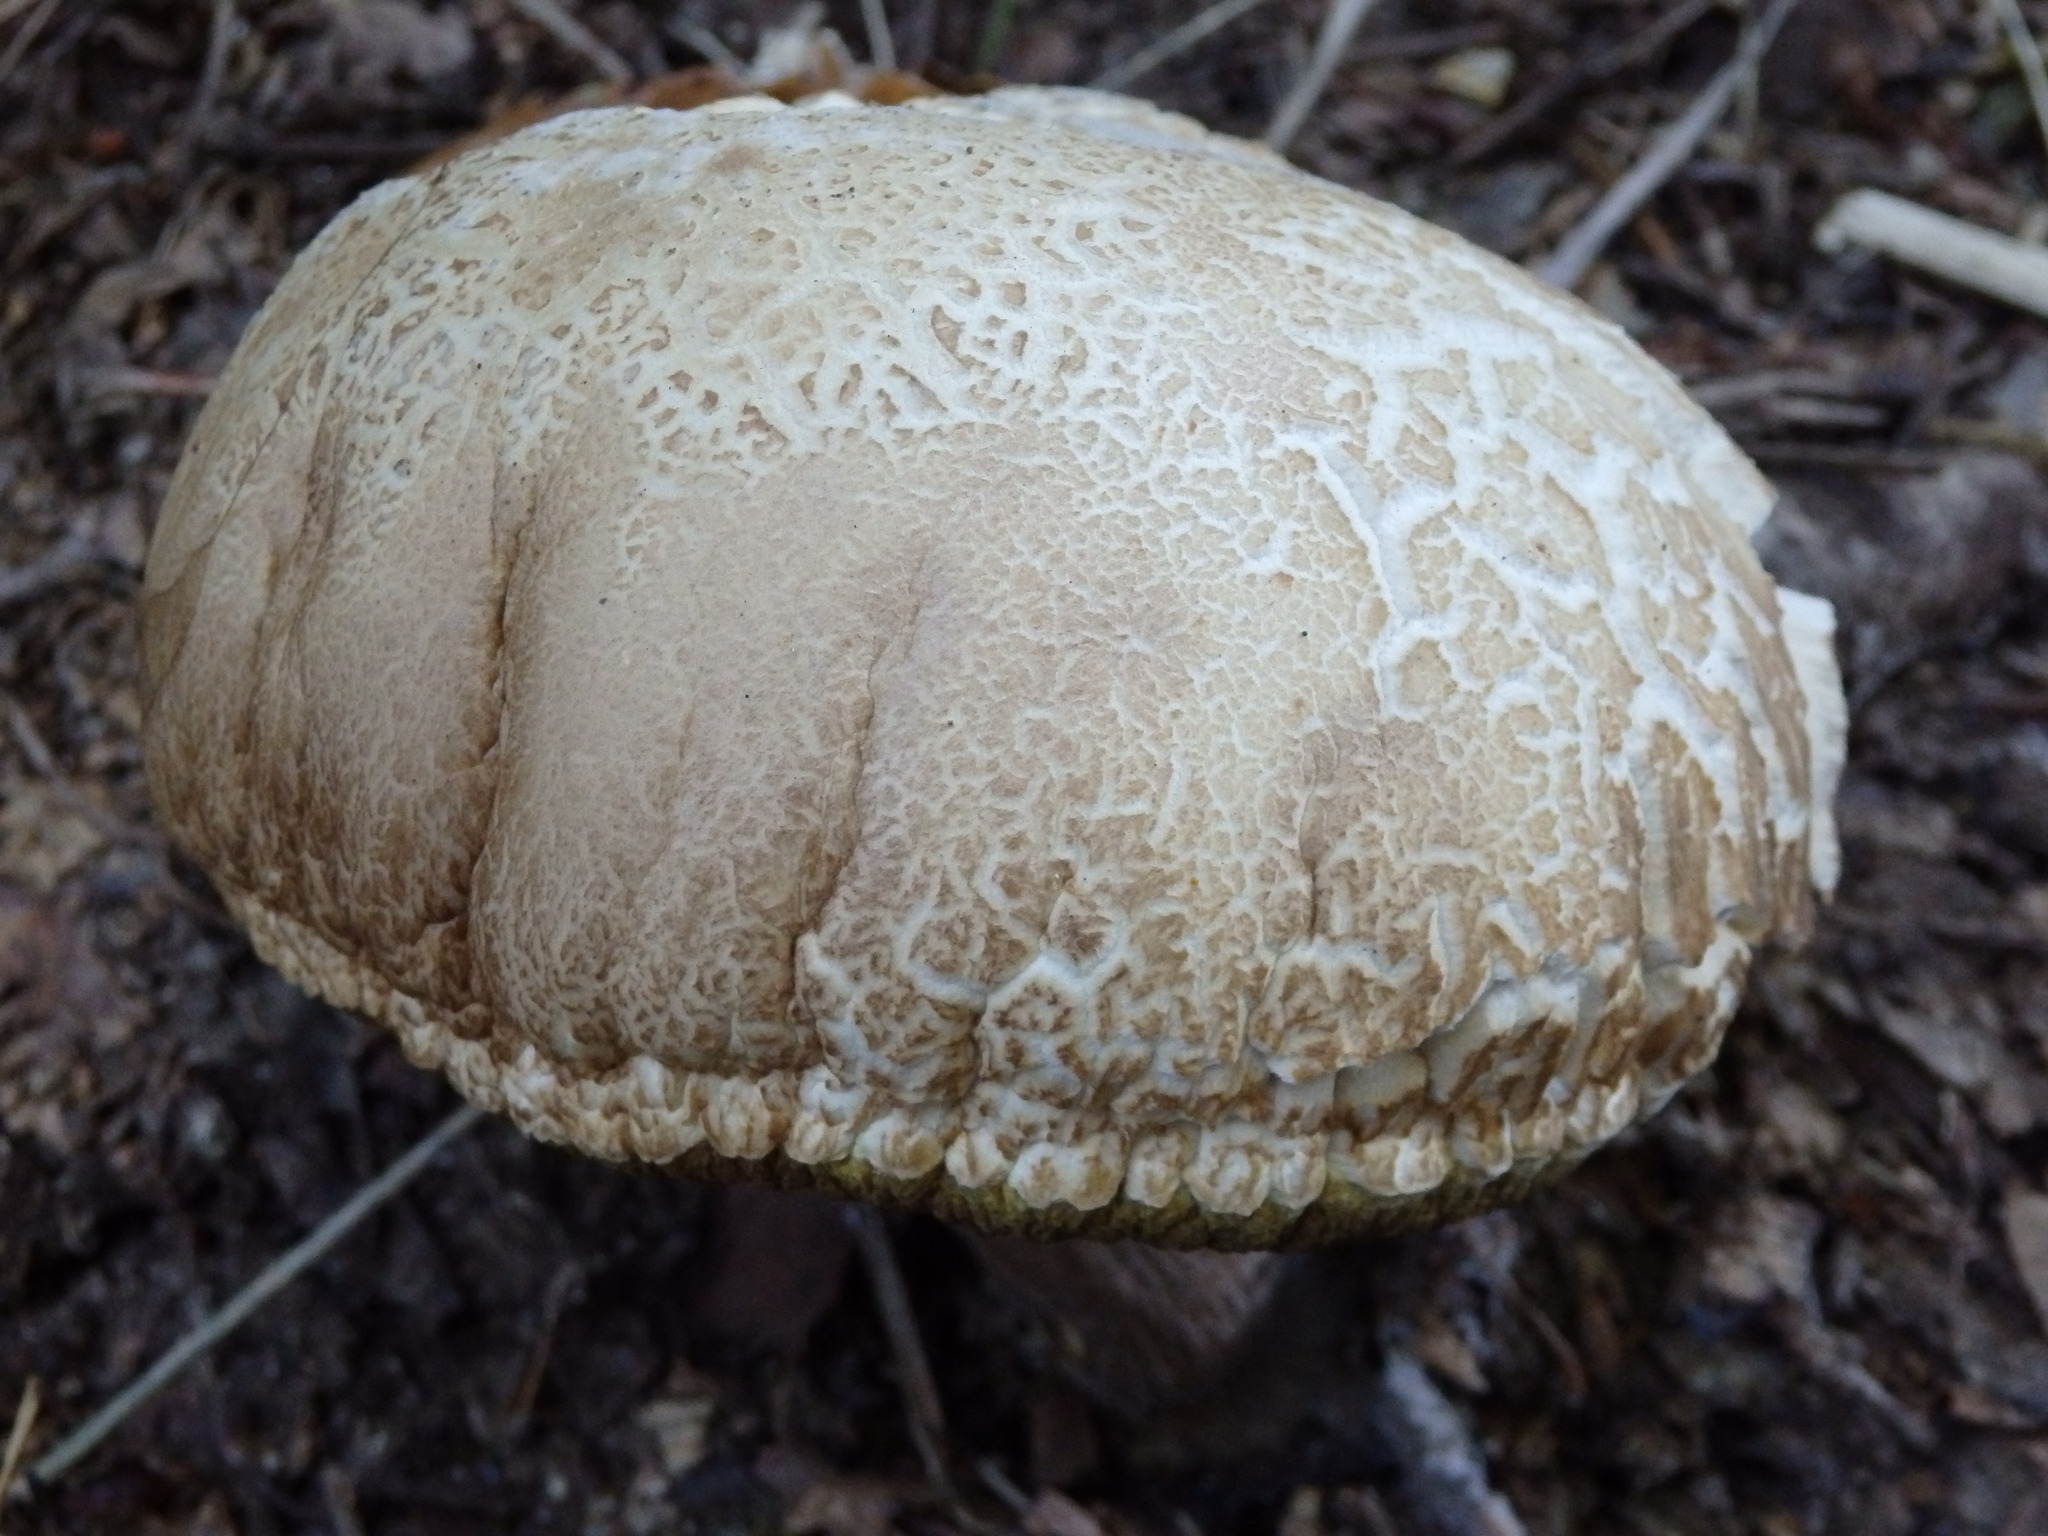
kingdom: Fungi
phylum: Basidiomycota
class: Agaricomycetes
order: Boletales
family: Boletaceae
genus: Boletus
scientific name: Boletus reticulatus
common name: Summer bolete
